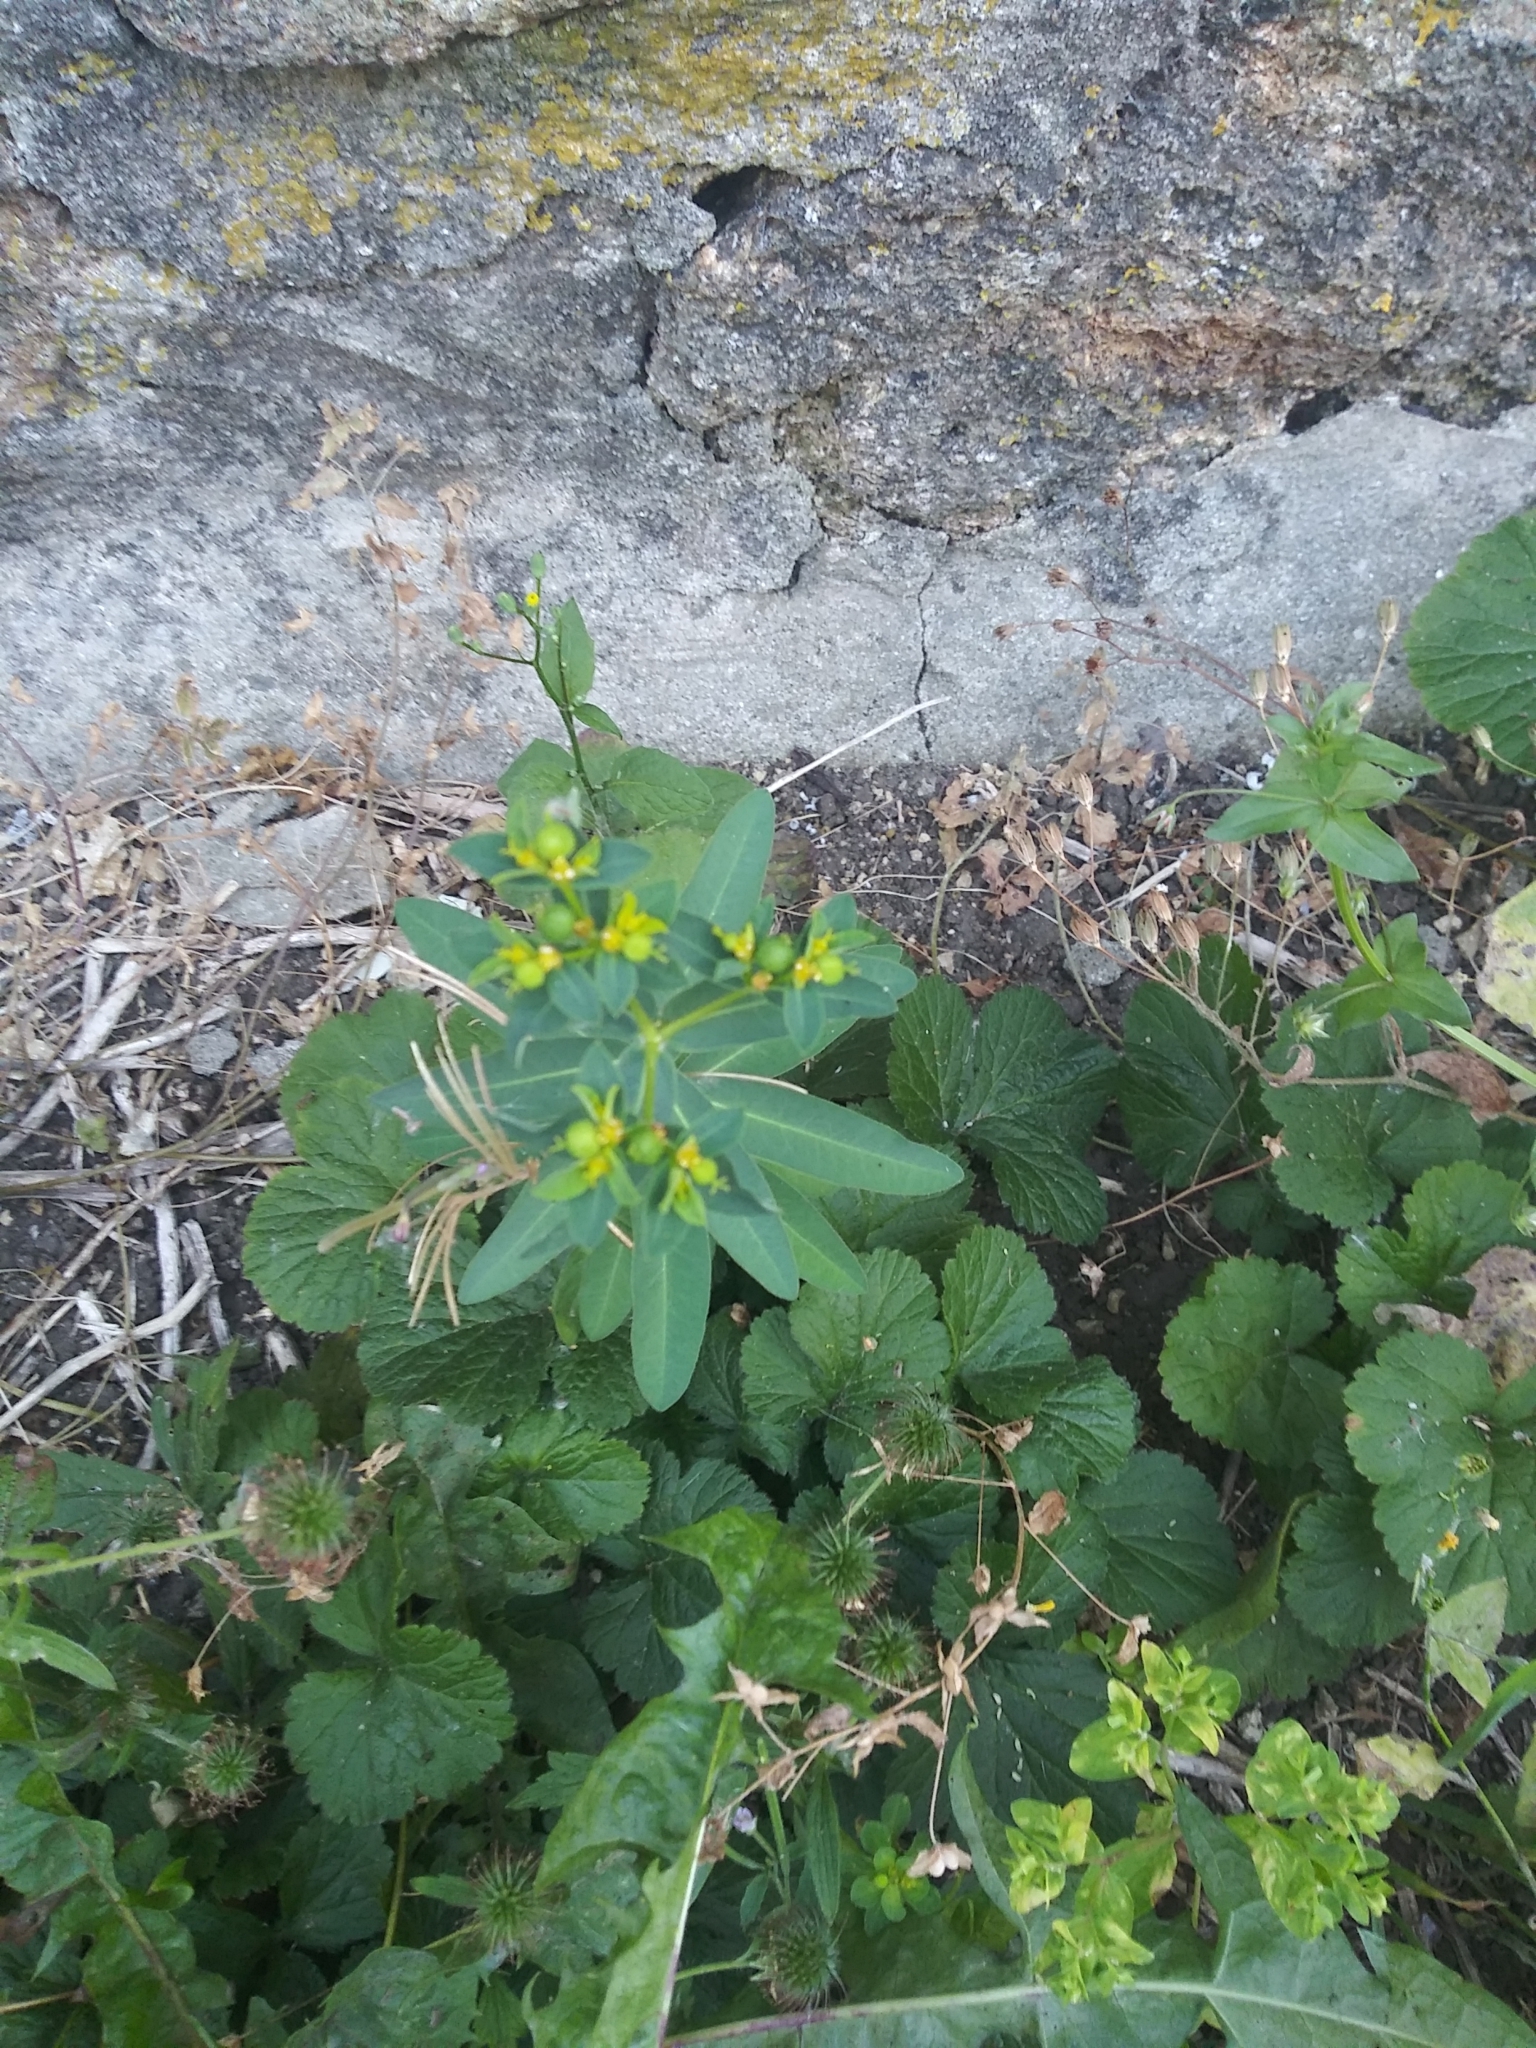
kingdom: Plantae
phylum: Tracheophyta
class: Magnoliopsida
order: Malpighiales
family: Euphorbiaceae
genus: Euphorbia
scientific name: Euphorbia oblongata
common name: Balkan spurge
